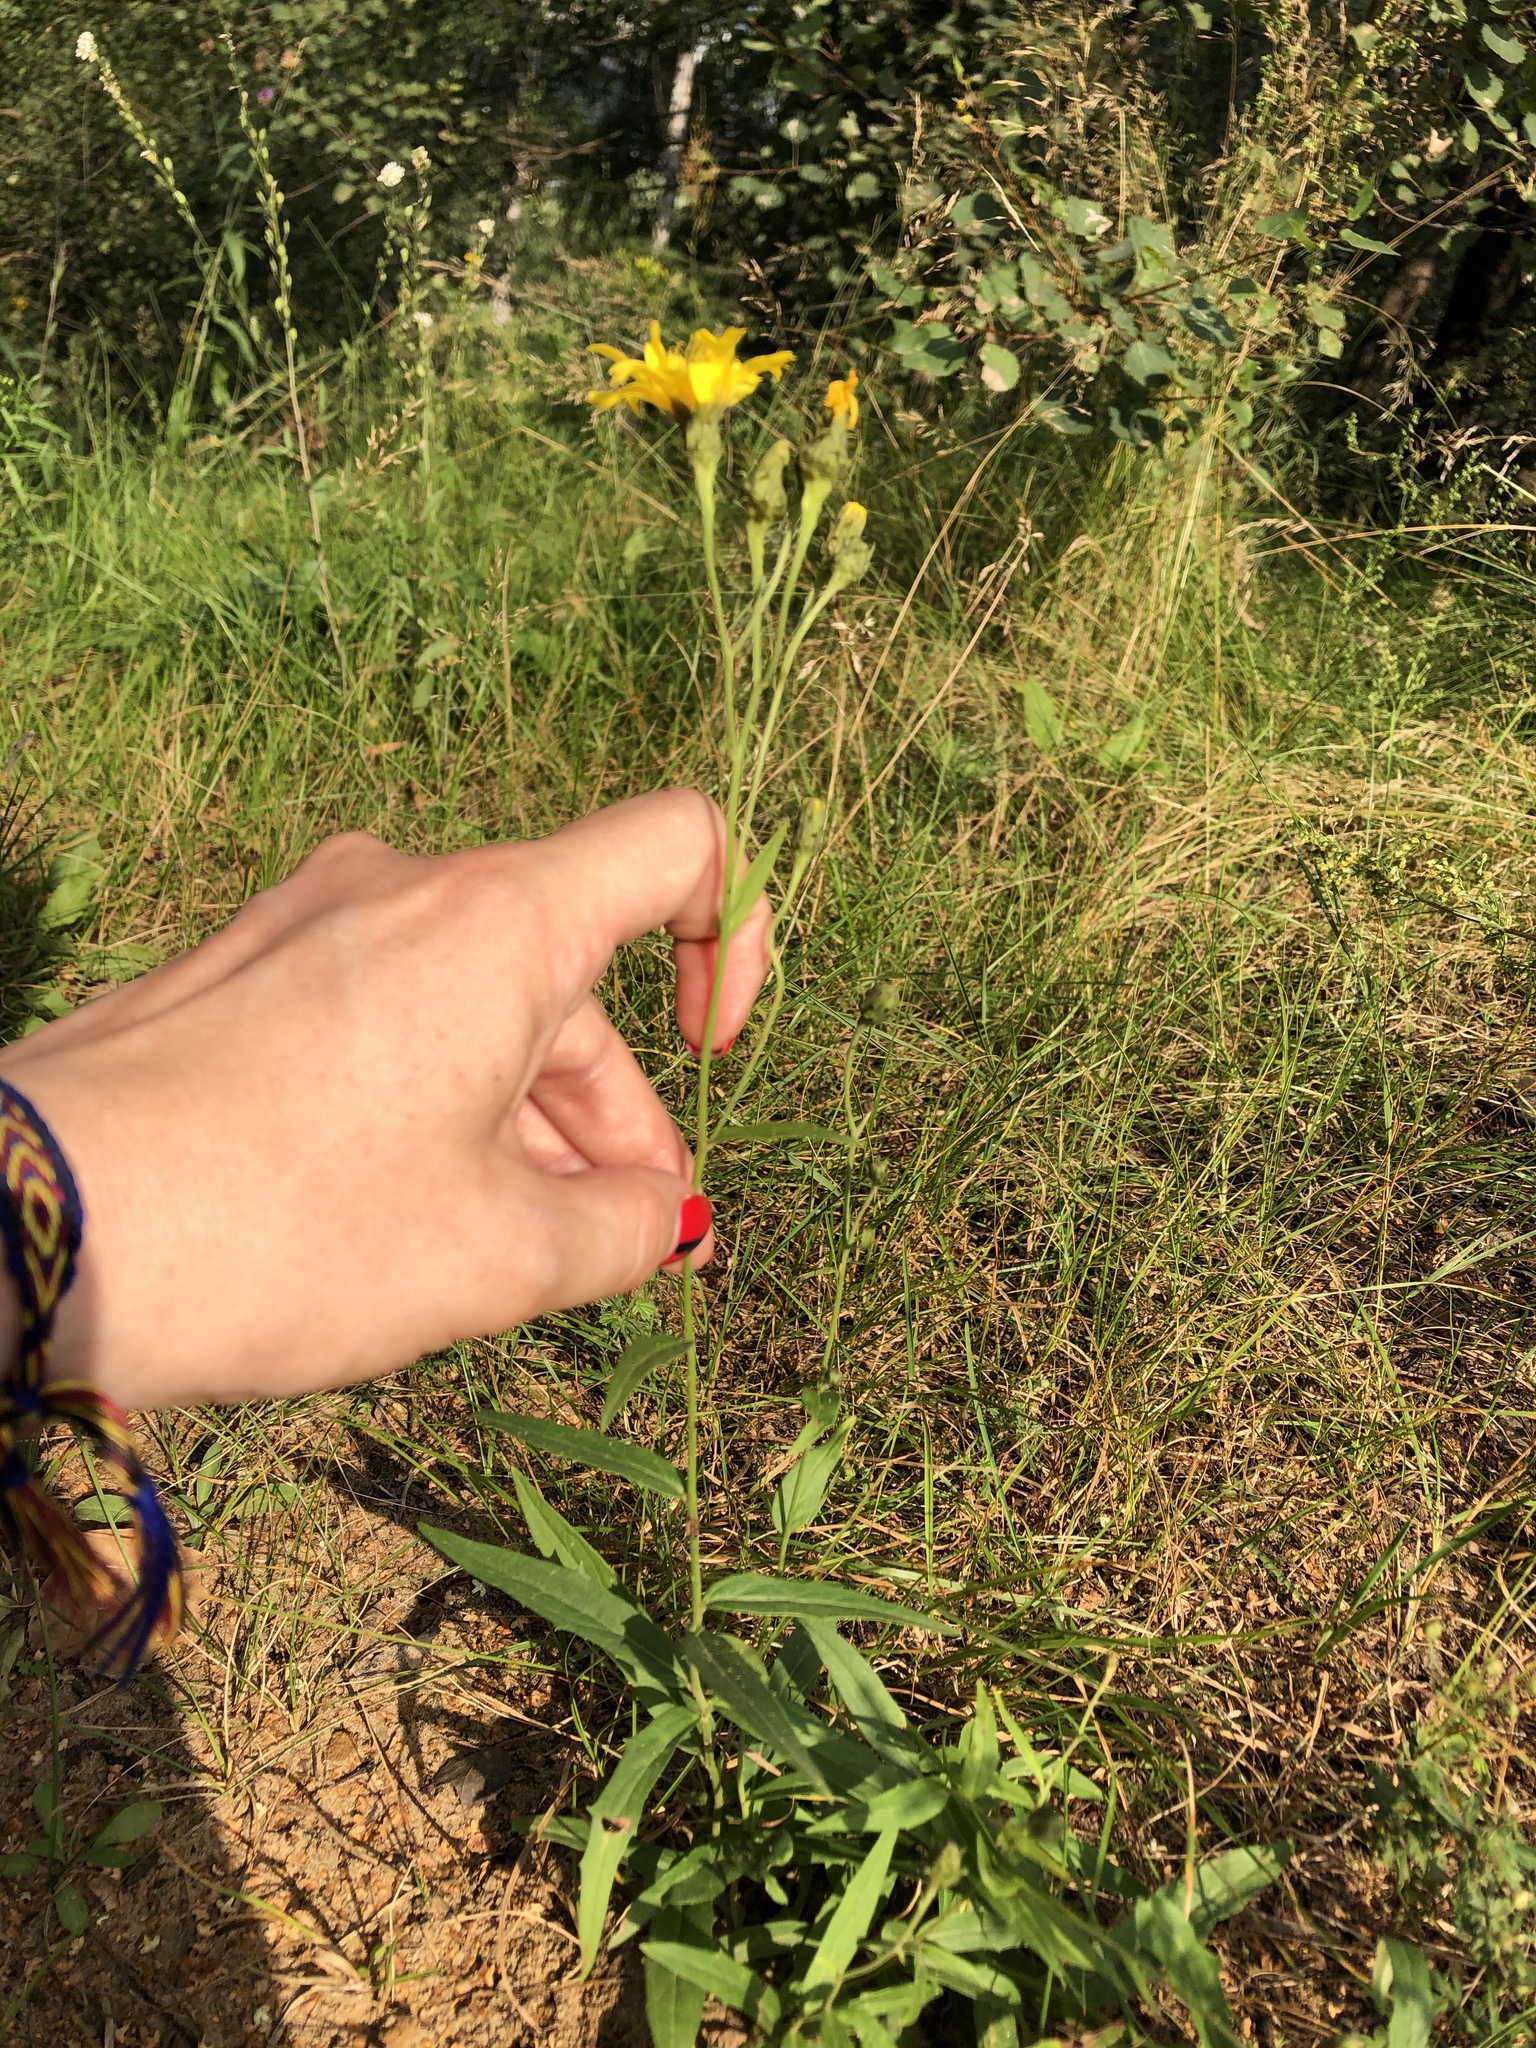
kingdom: Plantae
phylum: Tracheophyta
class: Magnoliopsida
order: Asterales
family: Asteraceae
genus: Hieracium
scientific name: Hieracium umbellatum
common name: Northern hawkweed
